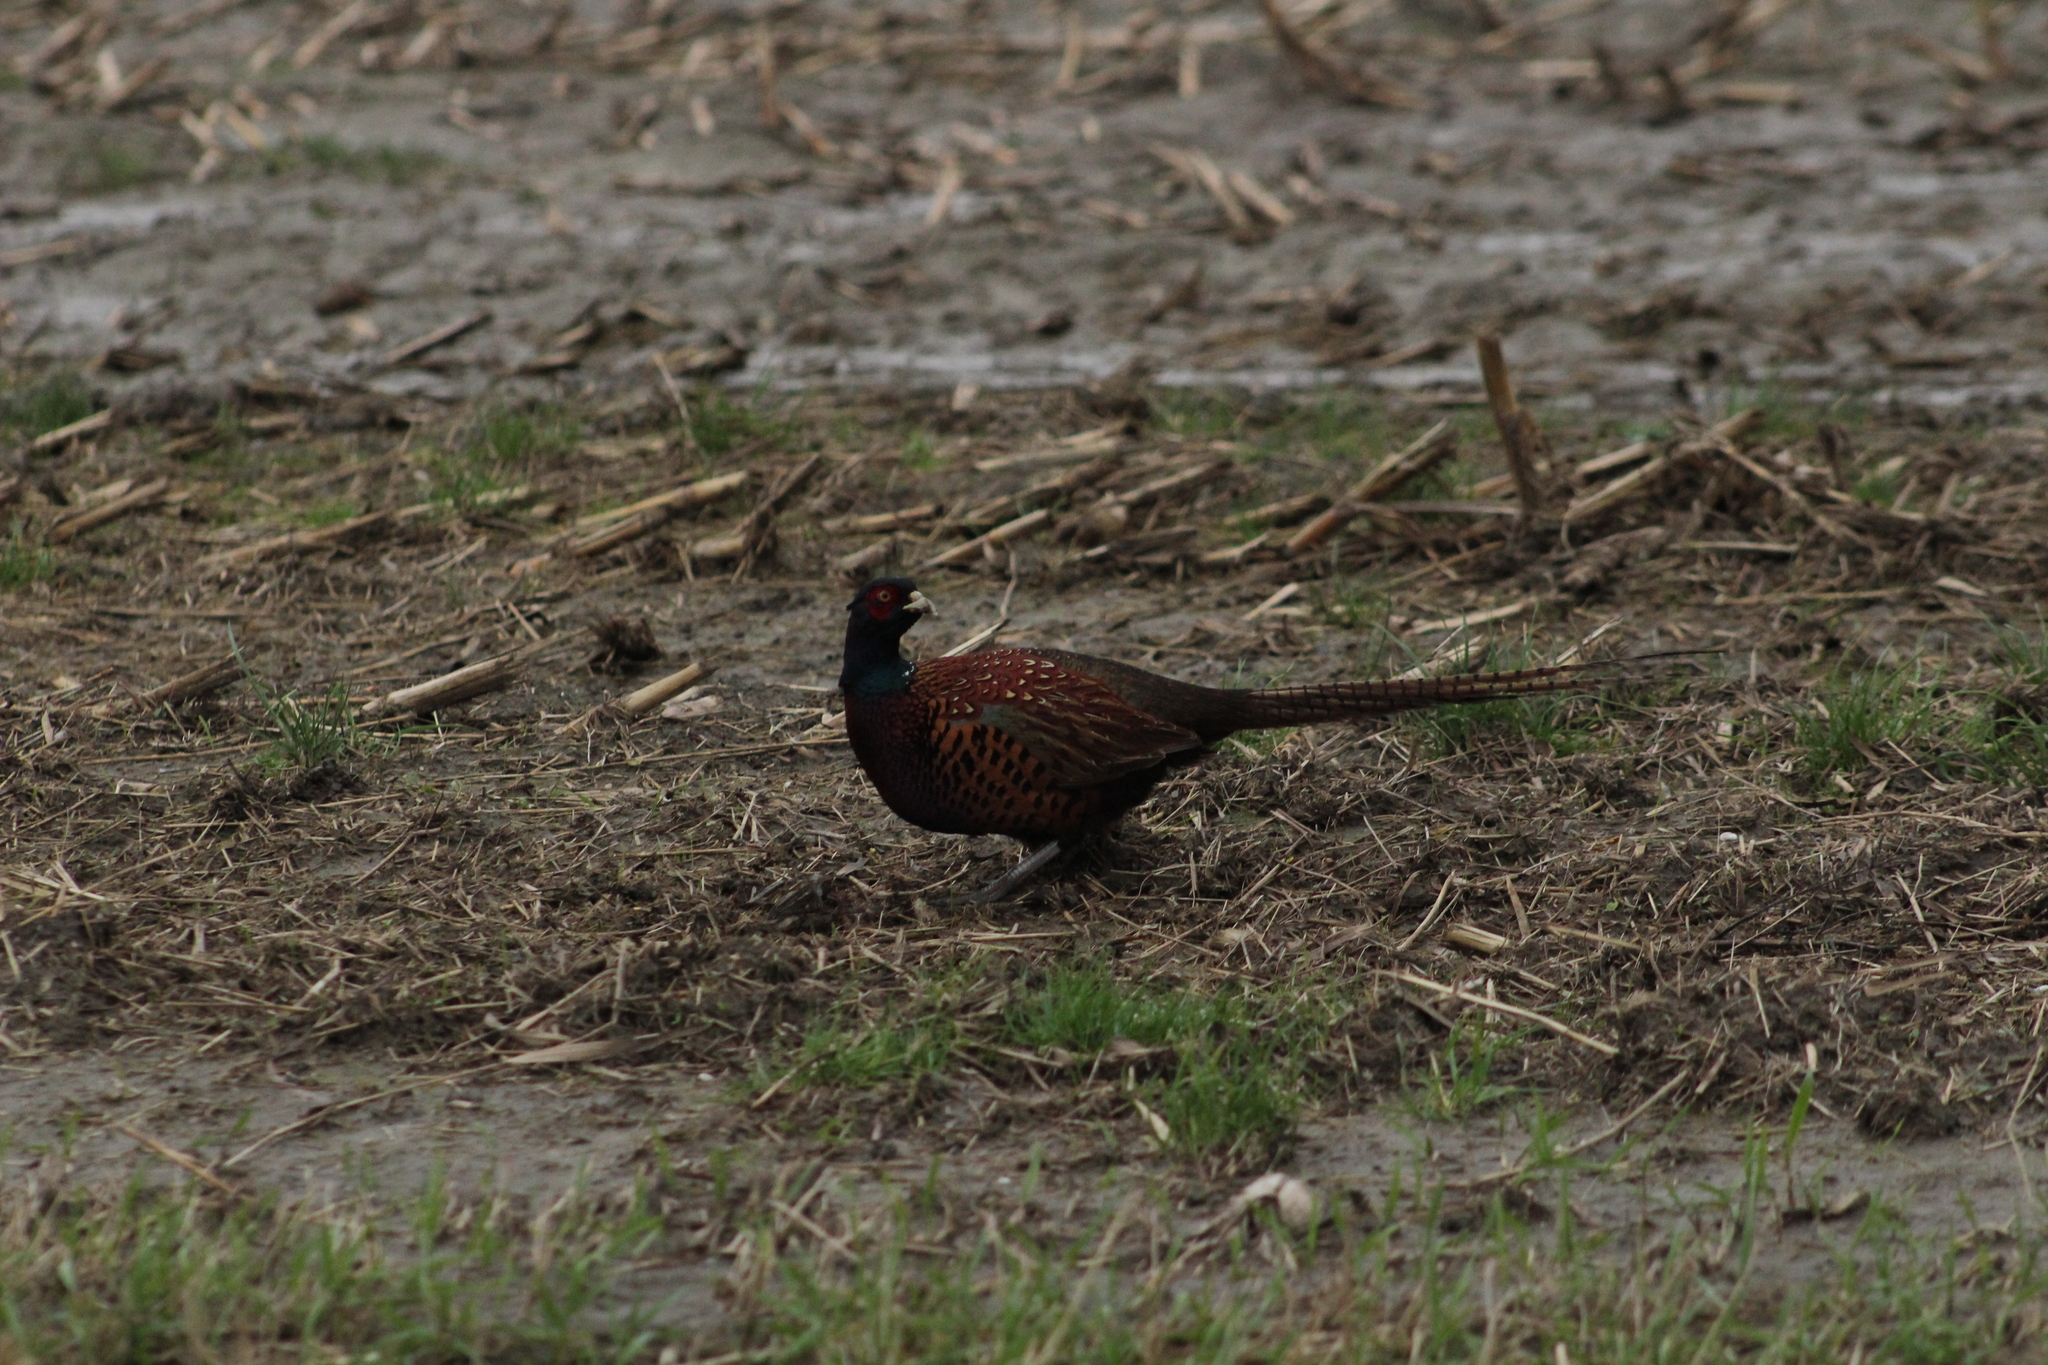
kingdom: Animalia
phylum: Chordata
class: Aves
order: Galliformes
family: Phasianidae
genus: Phasianus
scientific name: Phasianus colchicus
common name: Common pheasant
